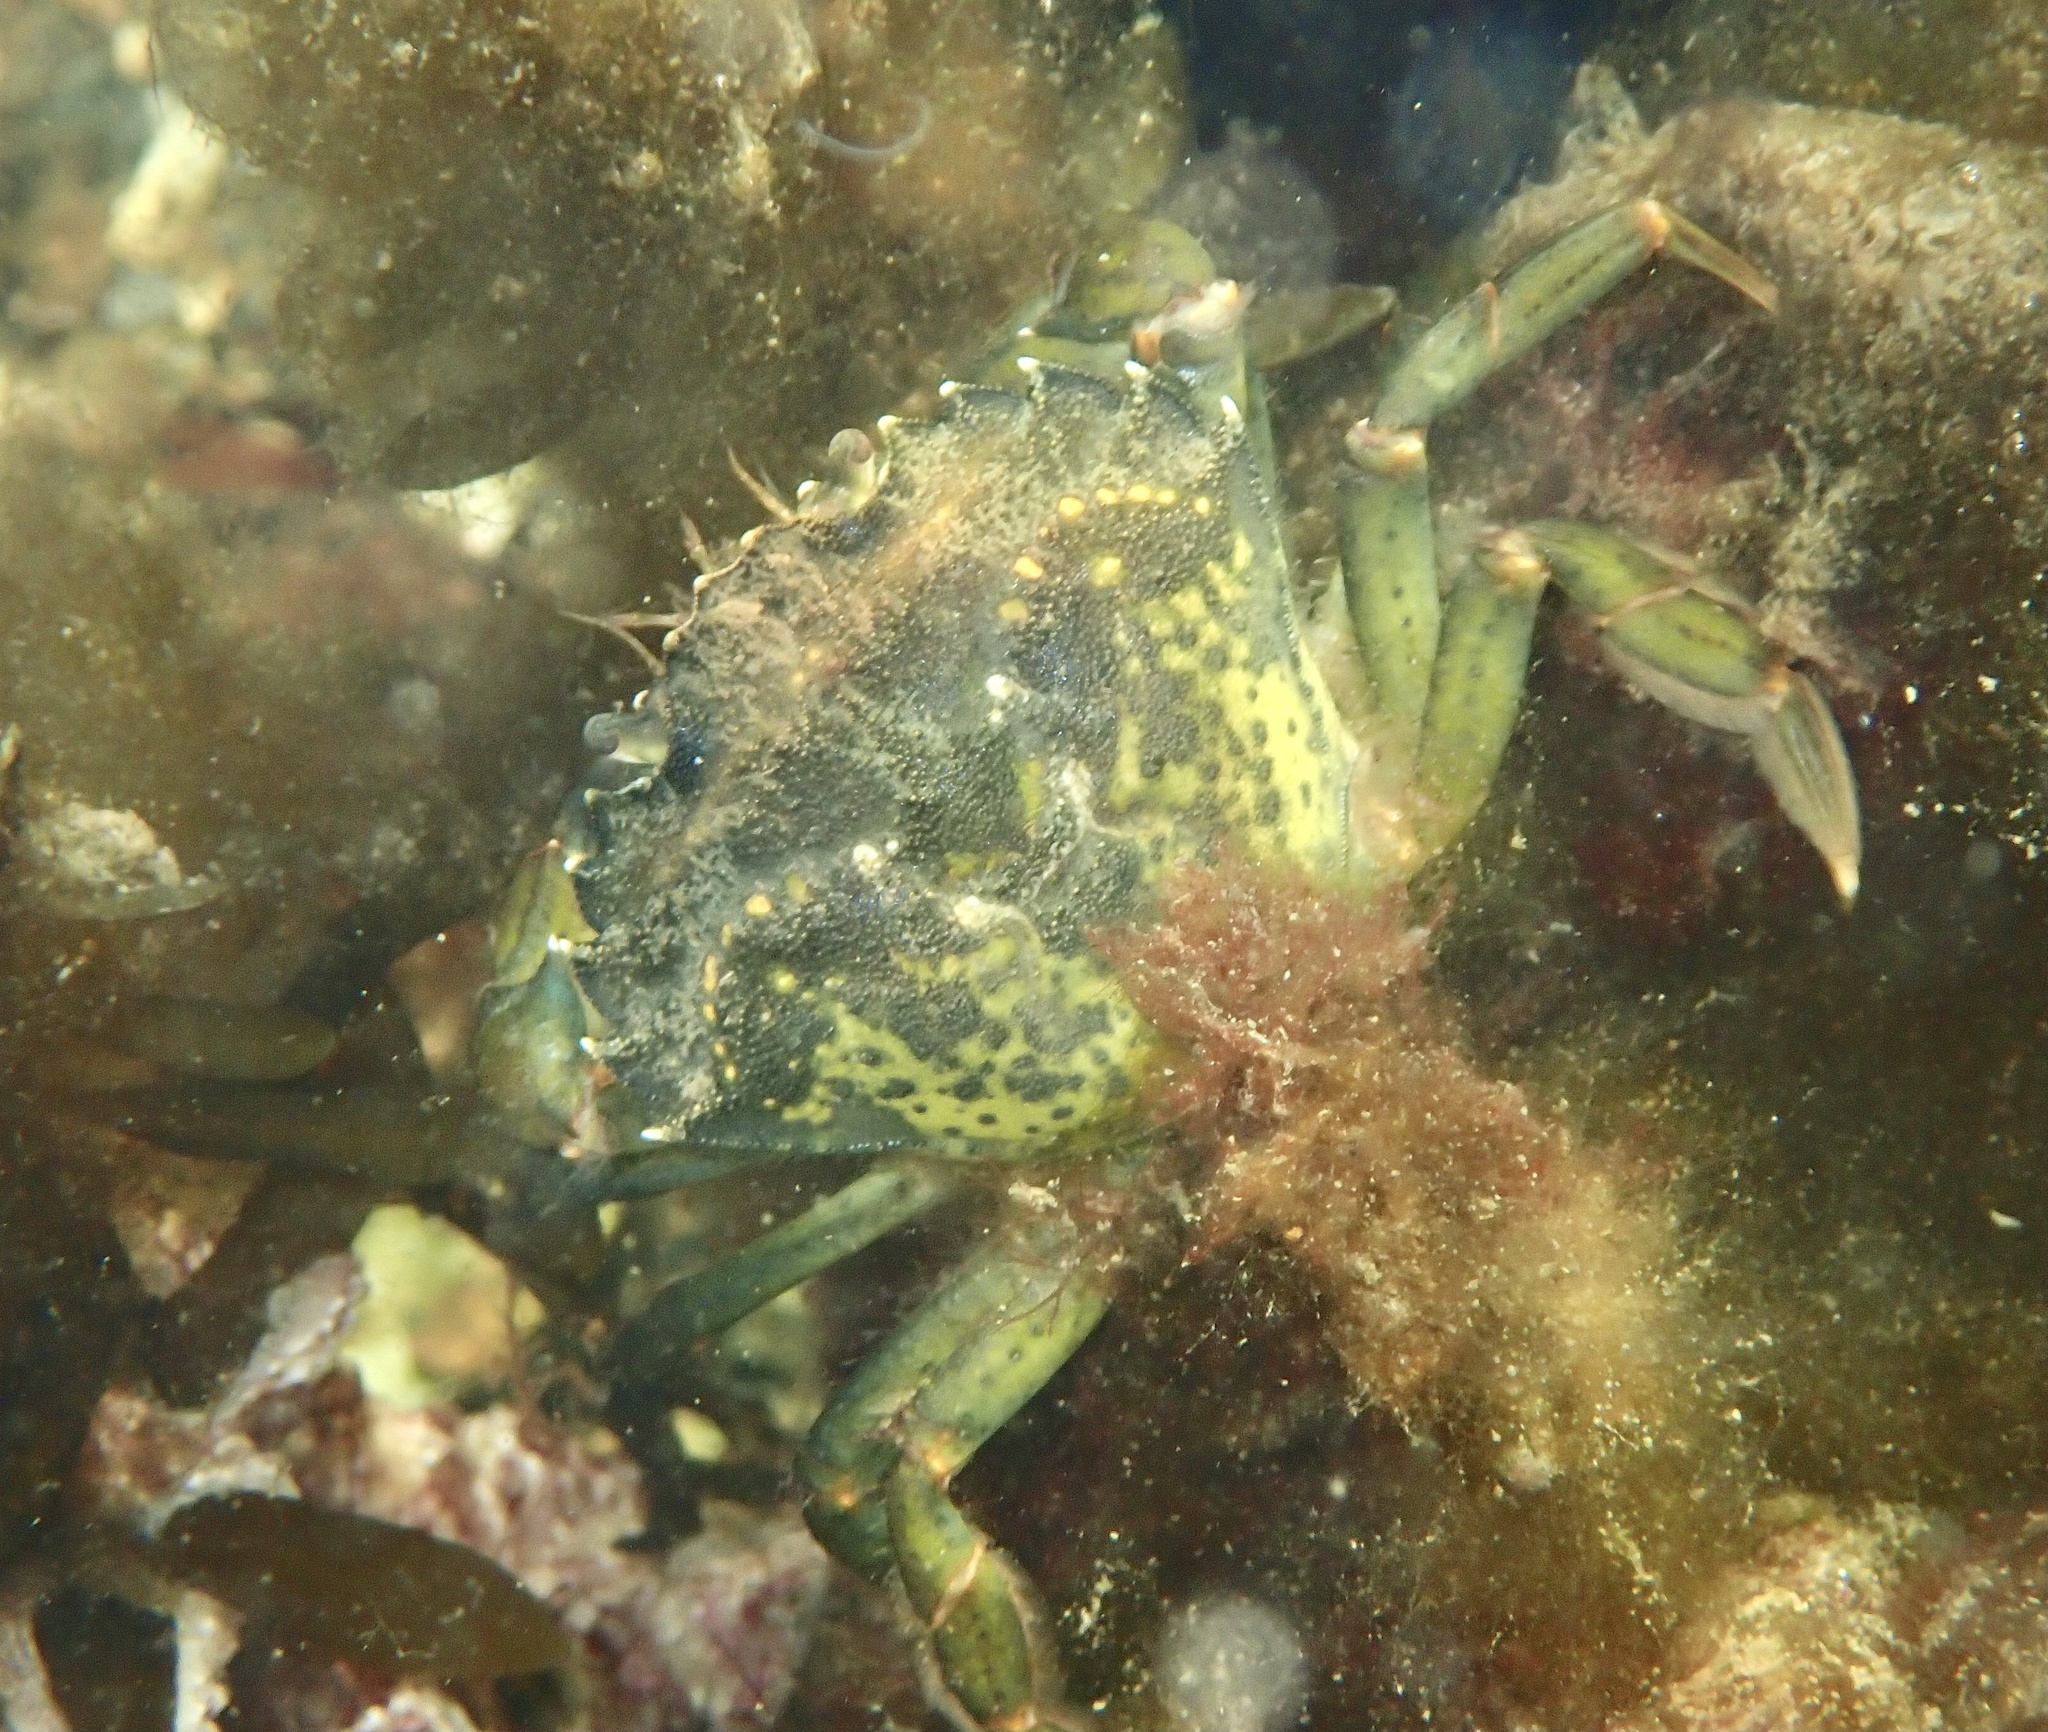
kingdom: Animalia
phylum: Arthropoda
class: Malacostraca
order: Decapoda
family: Carcinidae
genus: Carcinus
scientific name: Carcinus maenas
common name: European green crab
